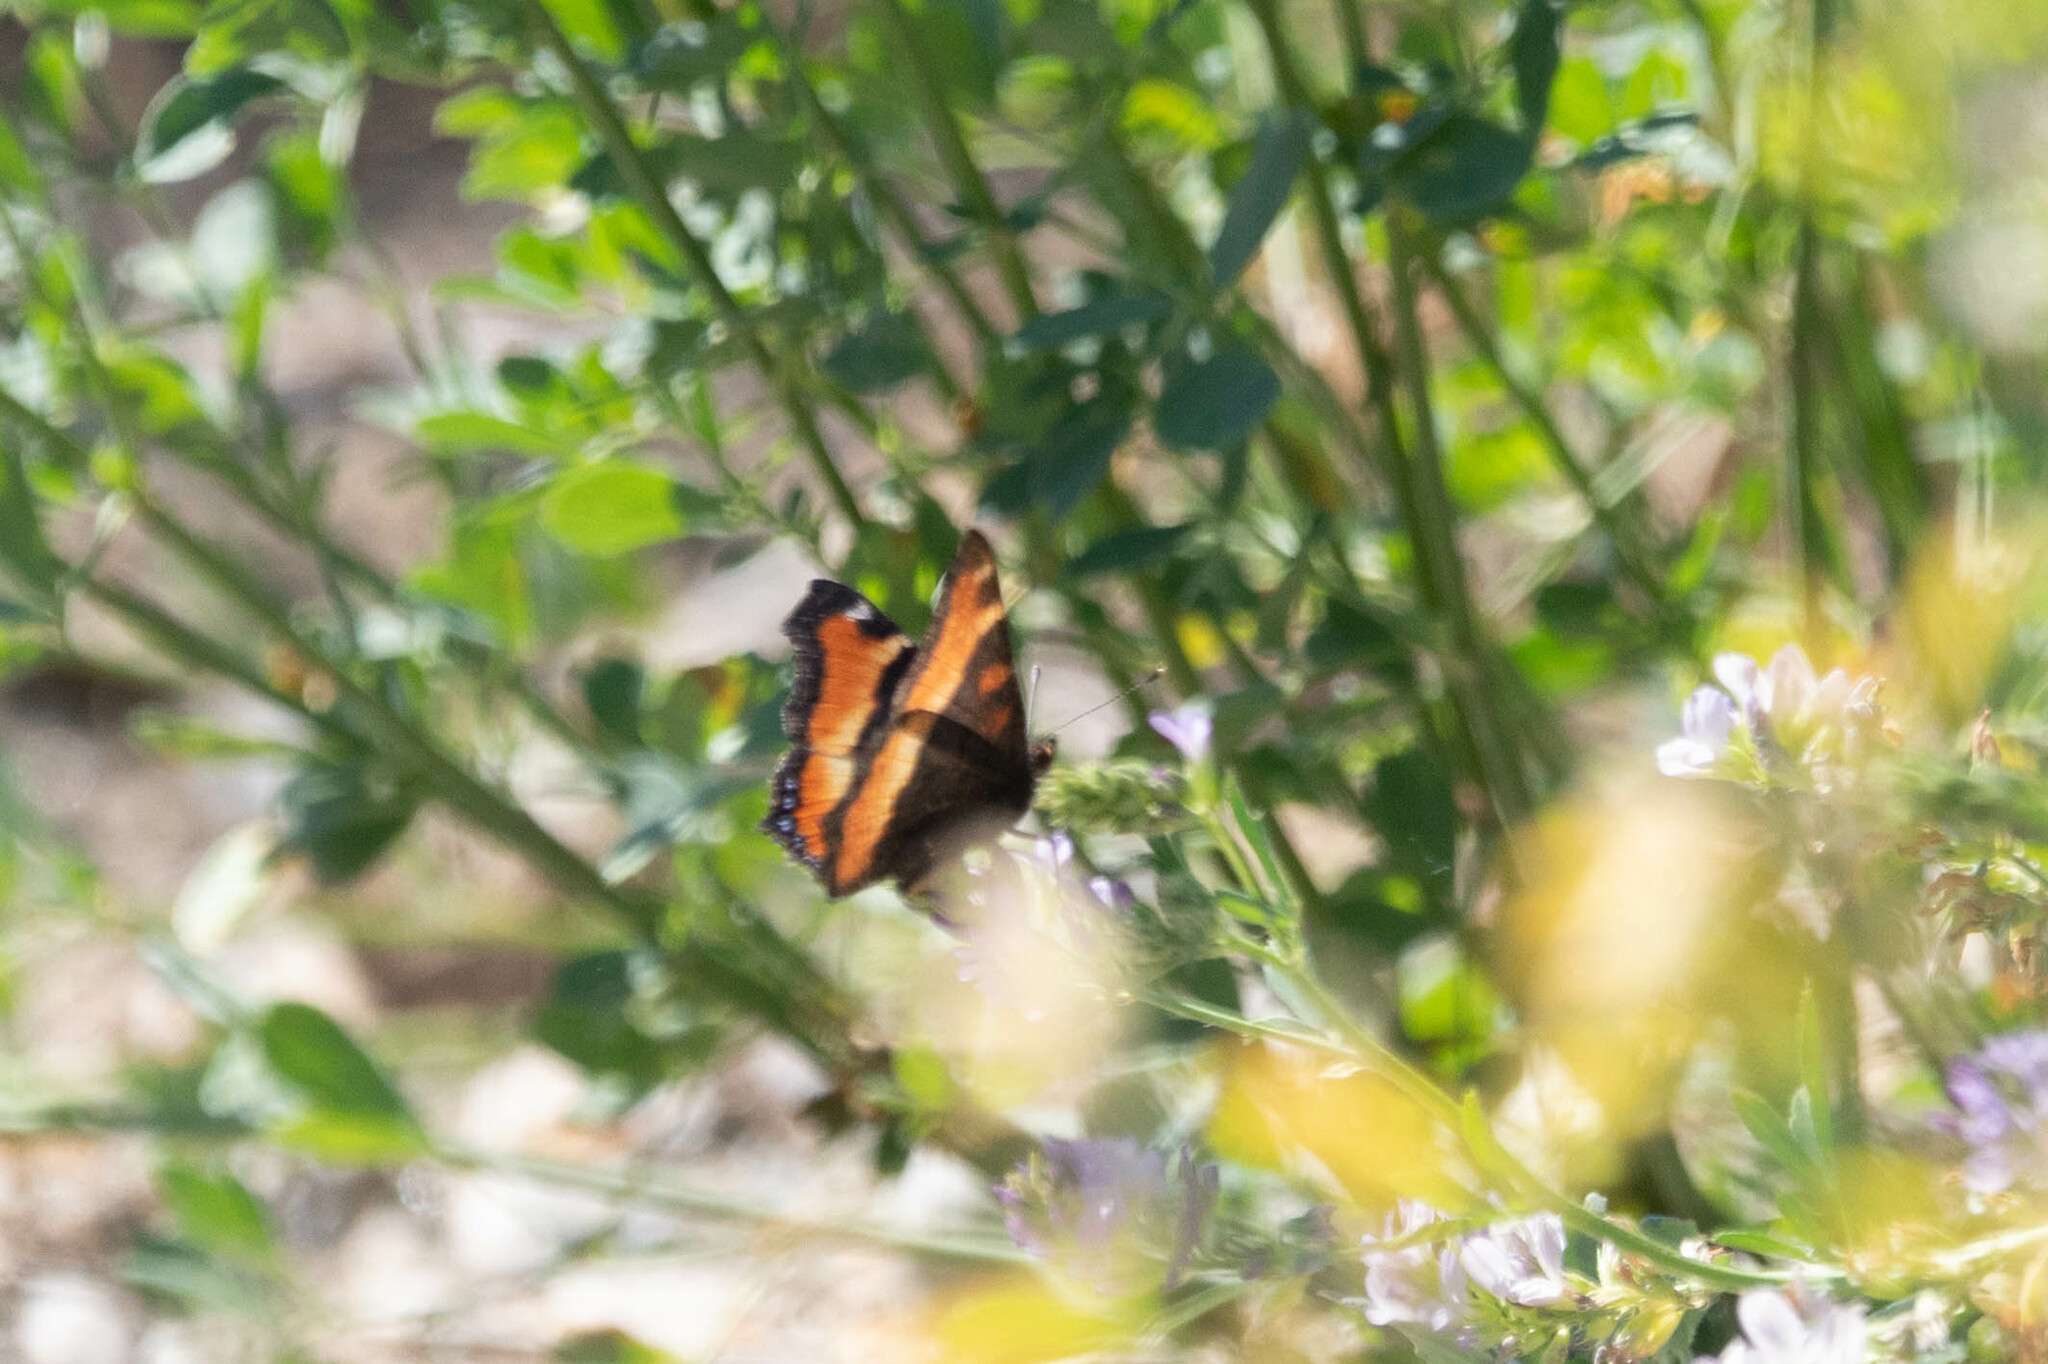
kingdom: Animalia
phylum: Arthropoda
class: Insecta
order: Lepidoptera
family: Nymphalidae
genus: Aglais
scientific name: Aglais milberti
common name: Milbert's tortoiseshell
